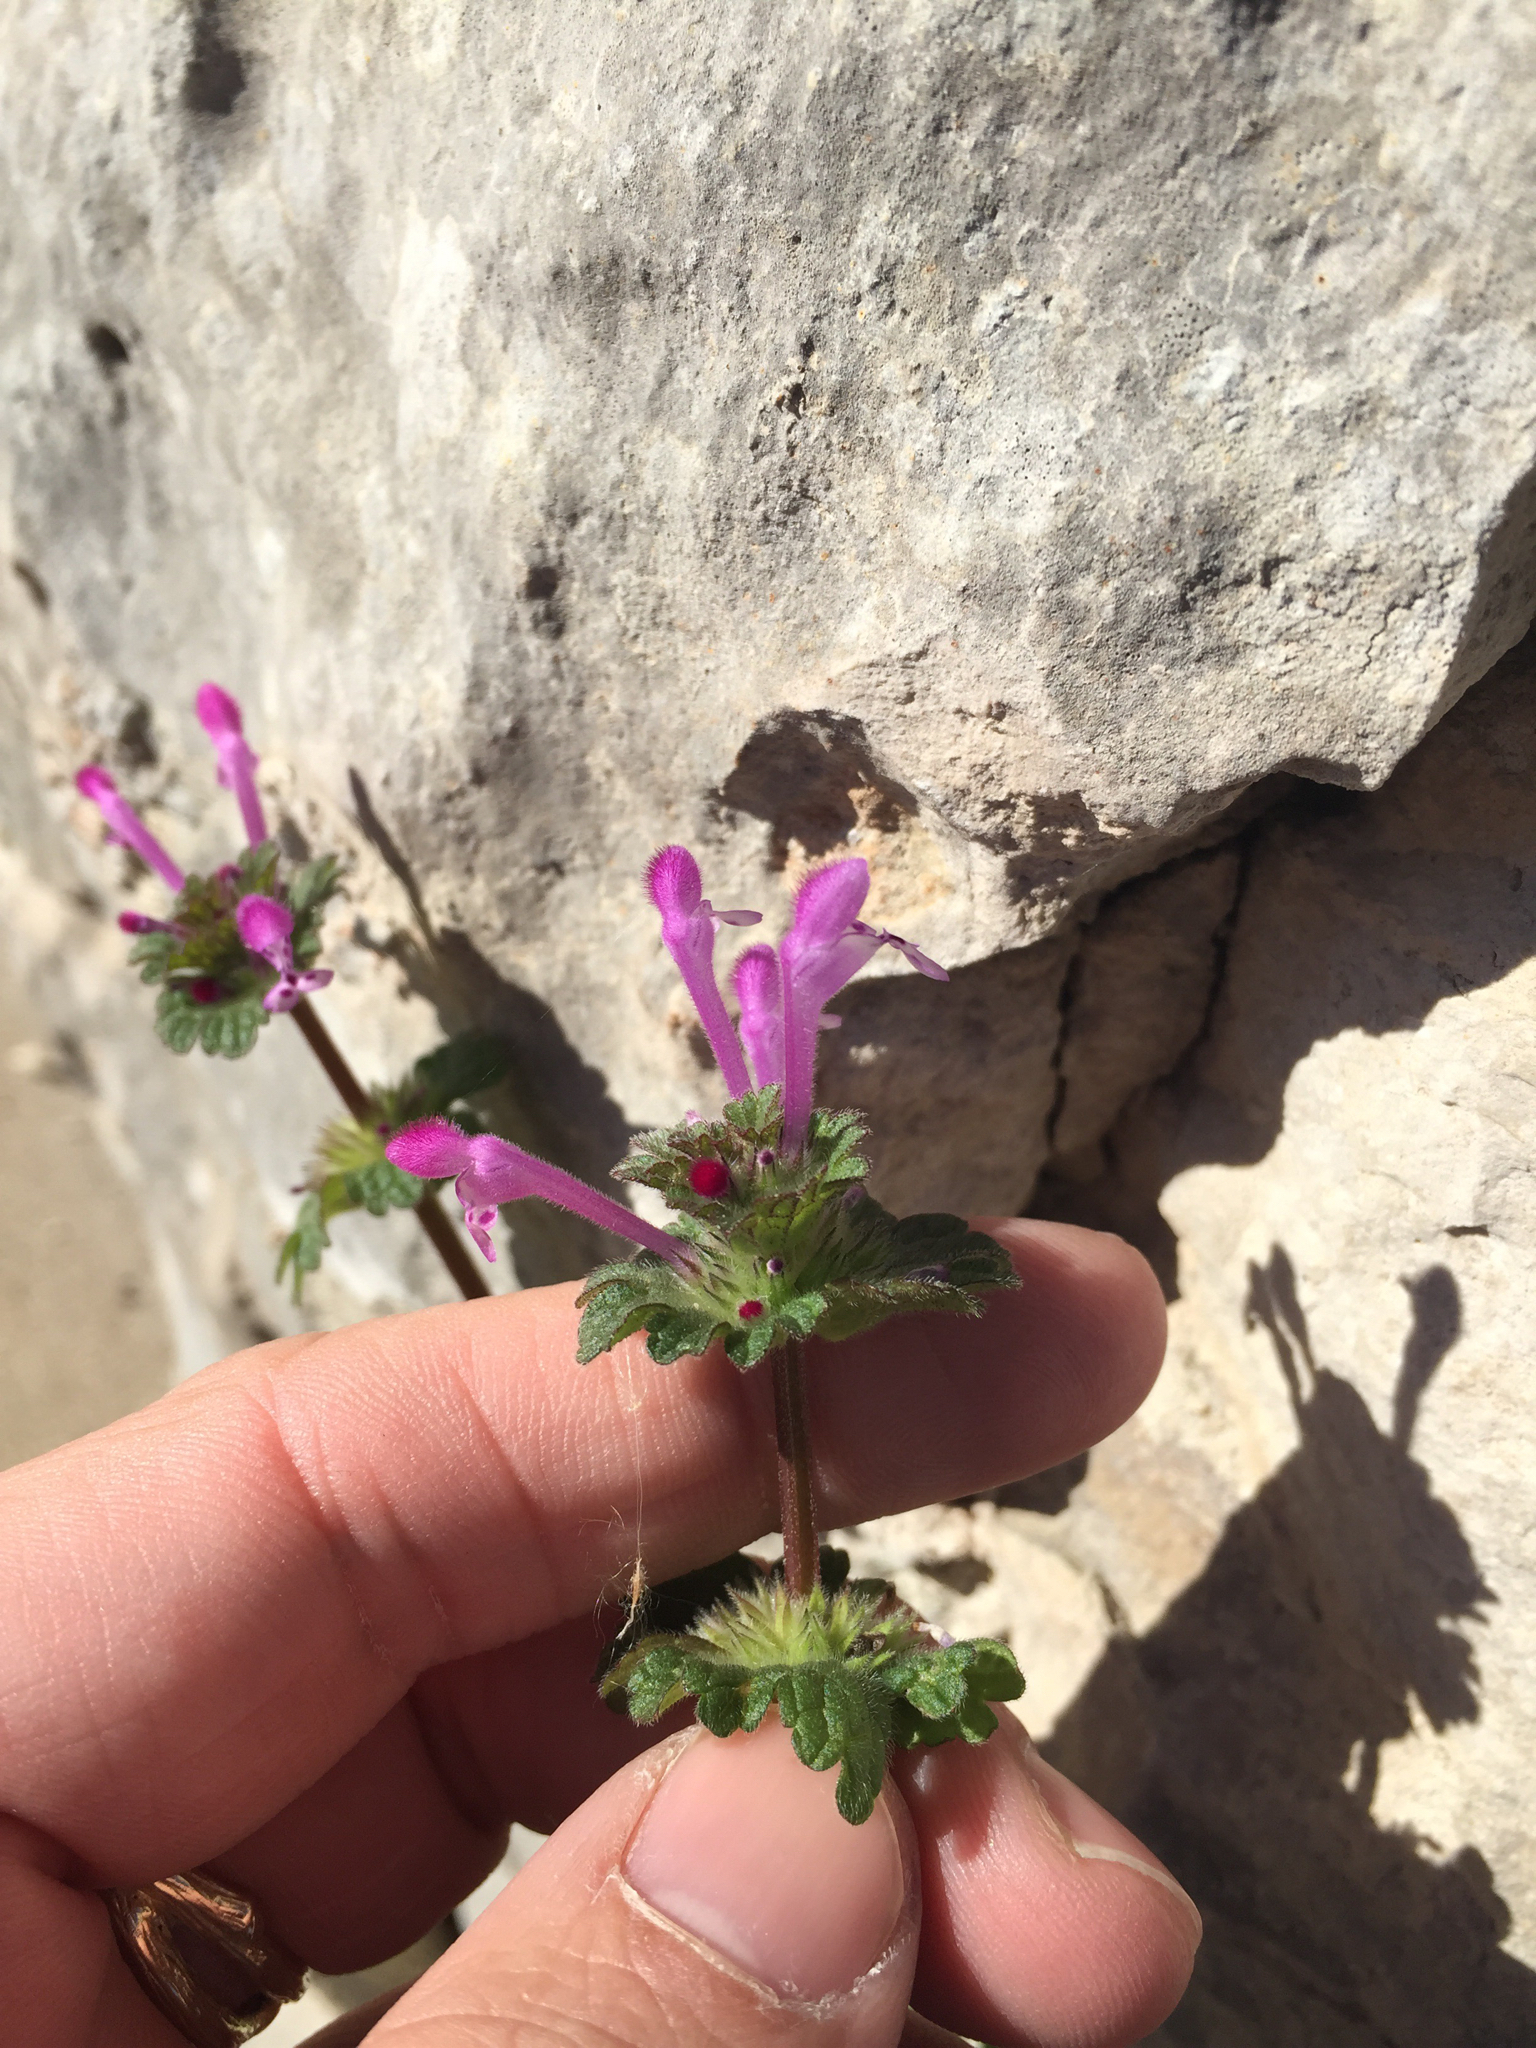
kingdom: Plantae
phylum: Tracheophyta
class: Magnoliopsida
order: Lamiales
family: Lamiaceae
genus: Lamium
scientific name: Lamium amplexicaule
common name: Henbit dead-nettle
